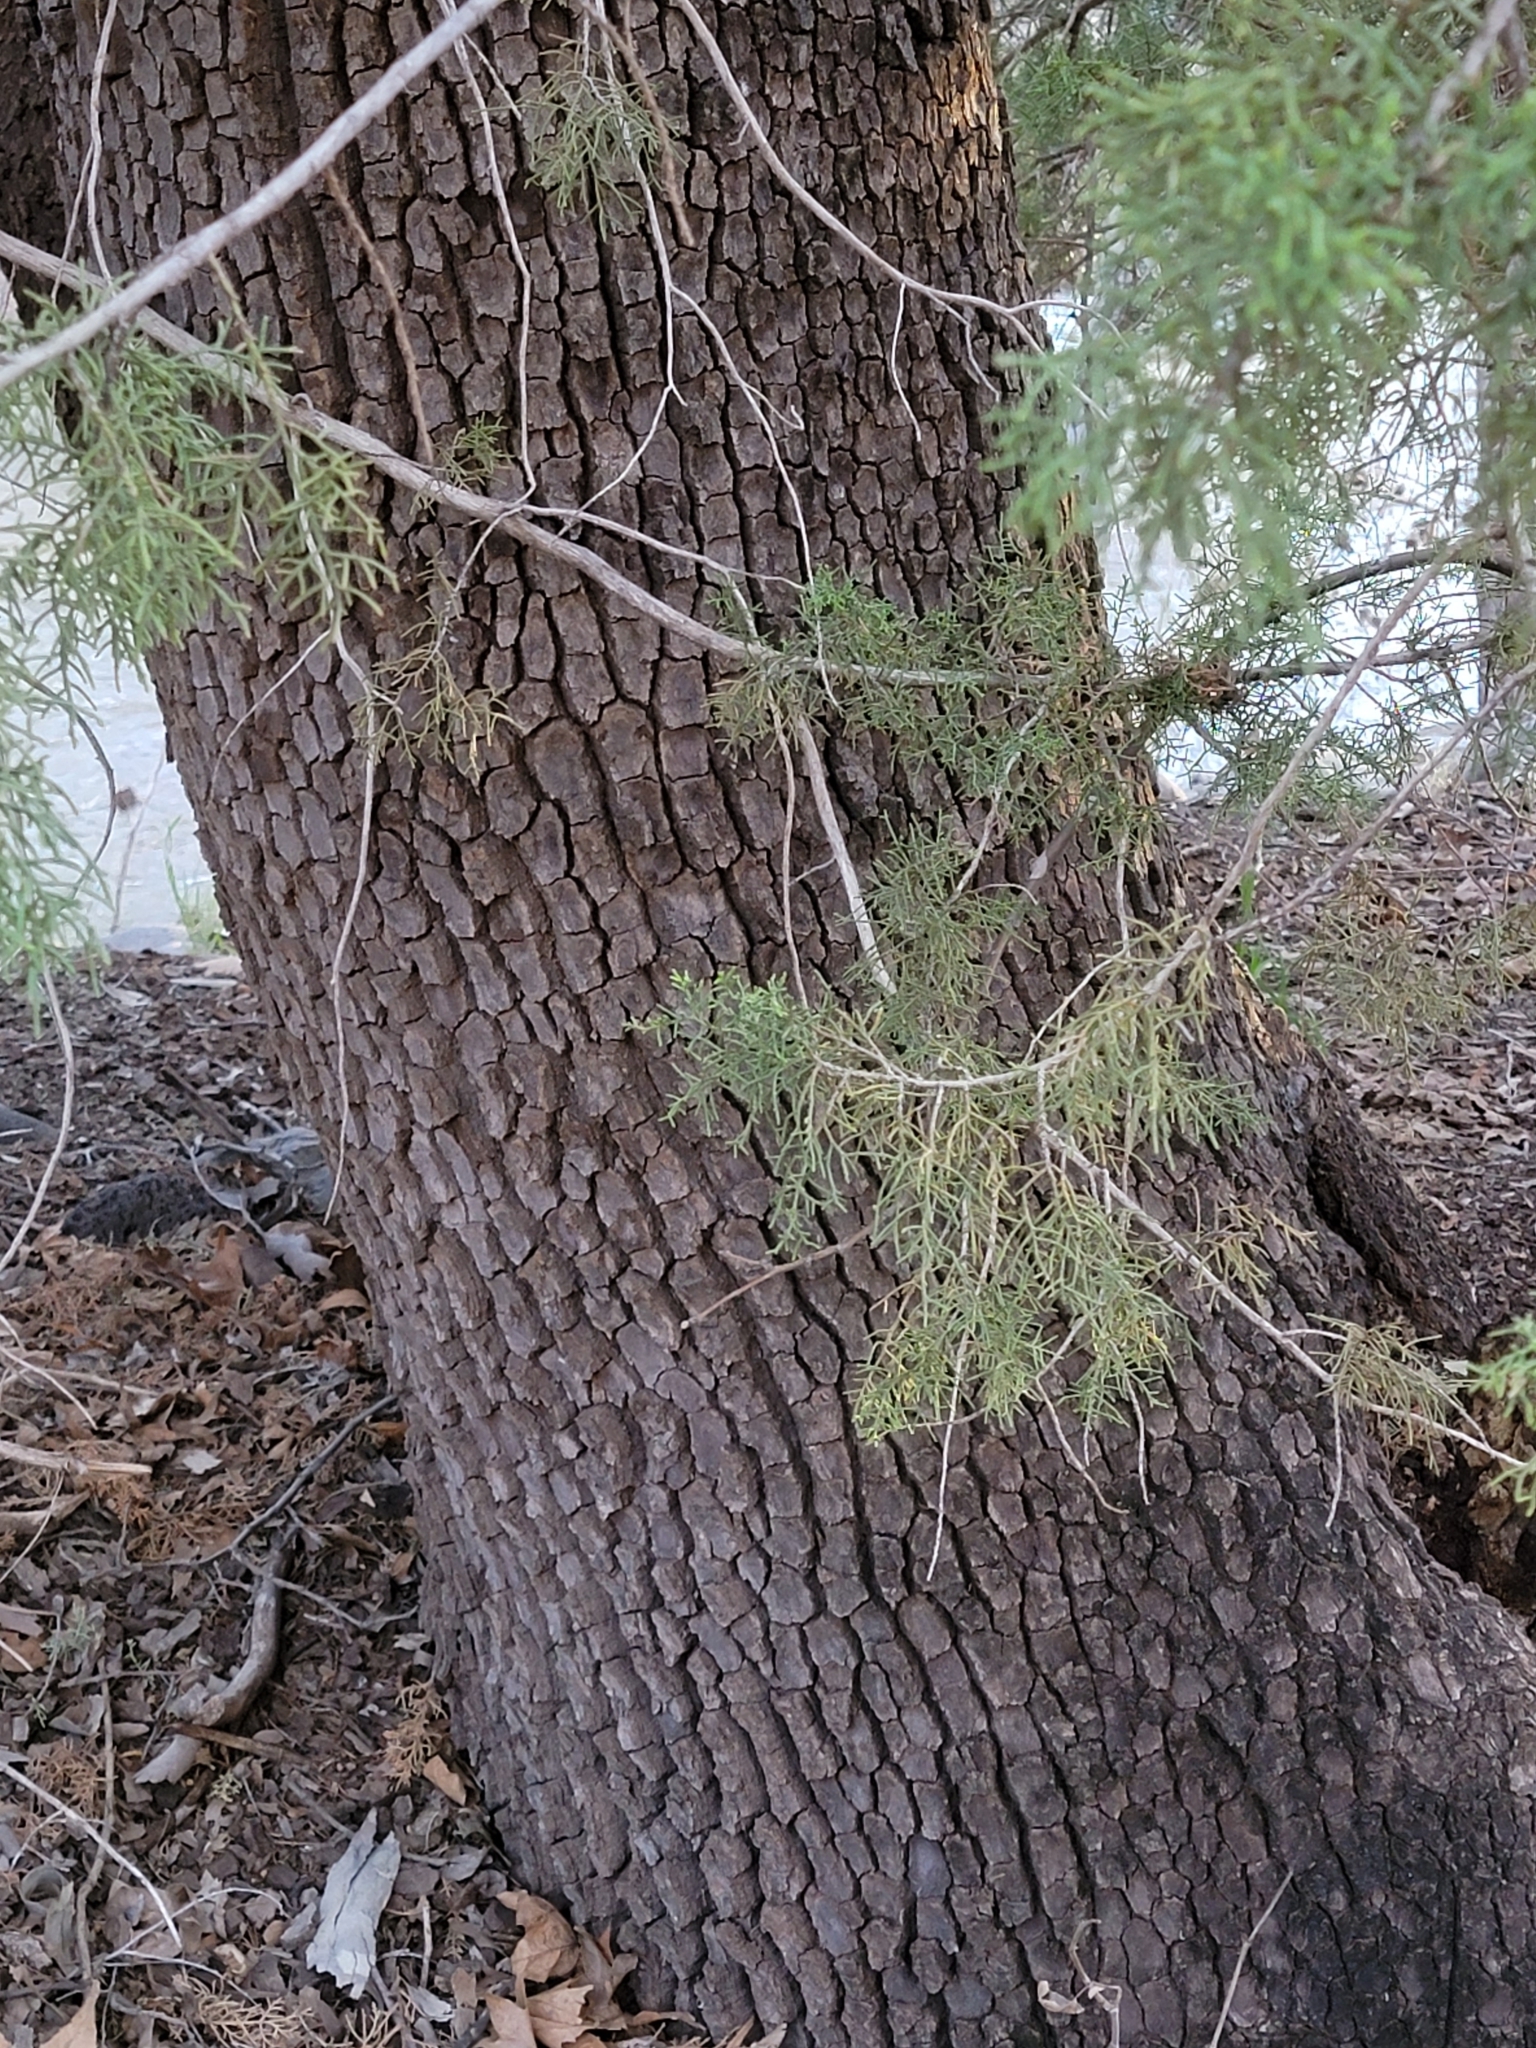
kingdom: Plantae
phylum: Tracheophyta
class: Pinopsida
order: Pinales
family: Cupressaceae
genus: Juniperus
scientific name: Juniperus deppeana
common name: Alligator juniper
